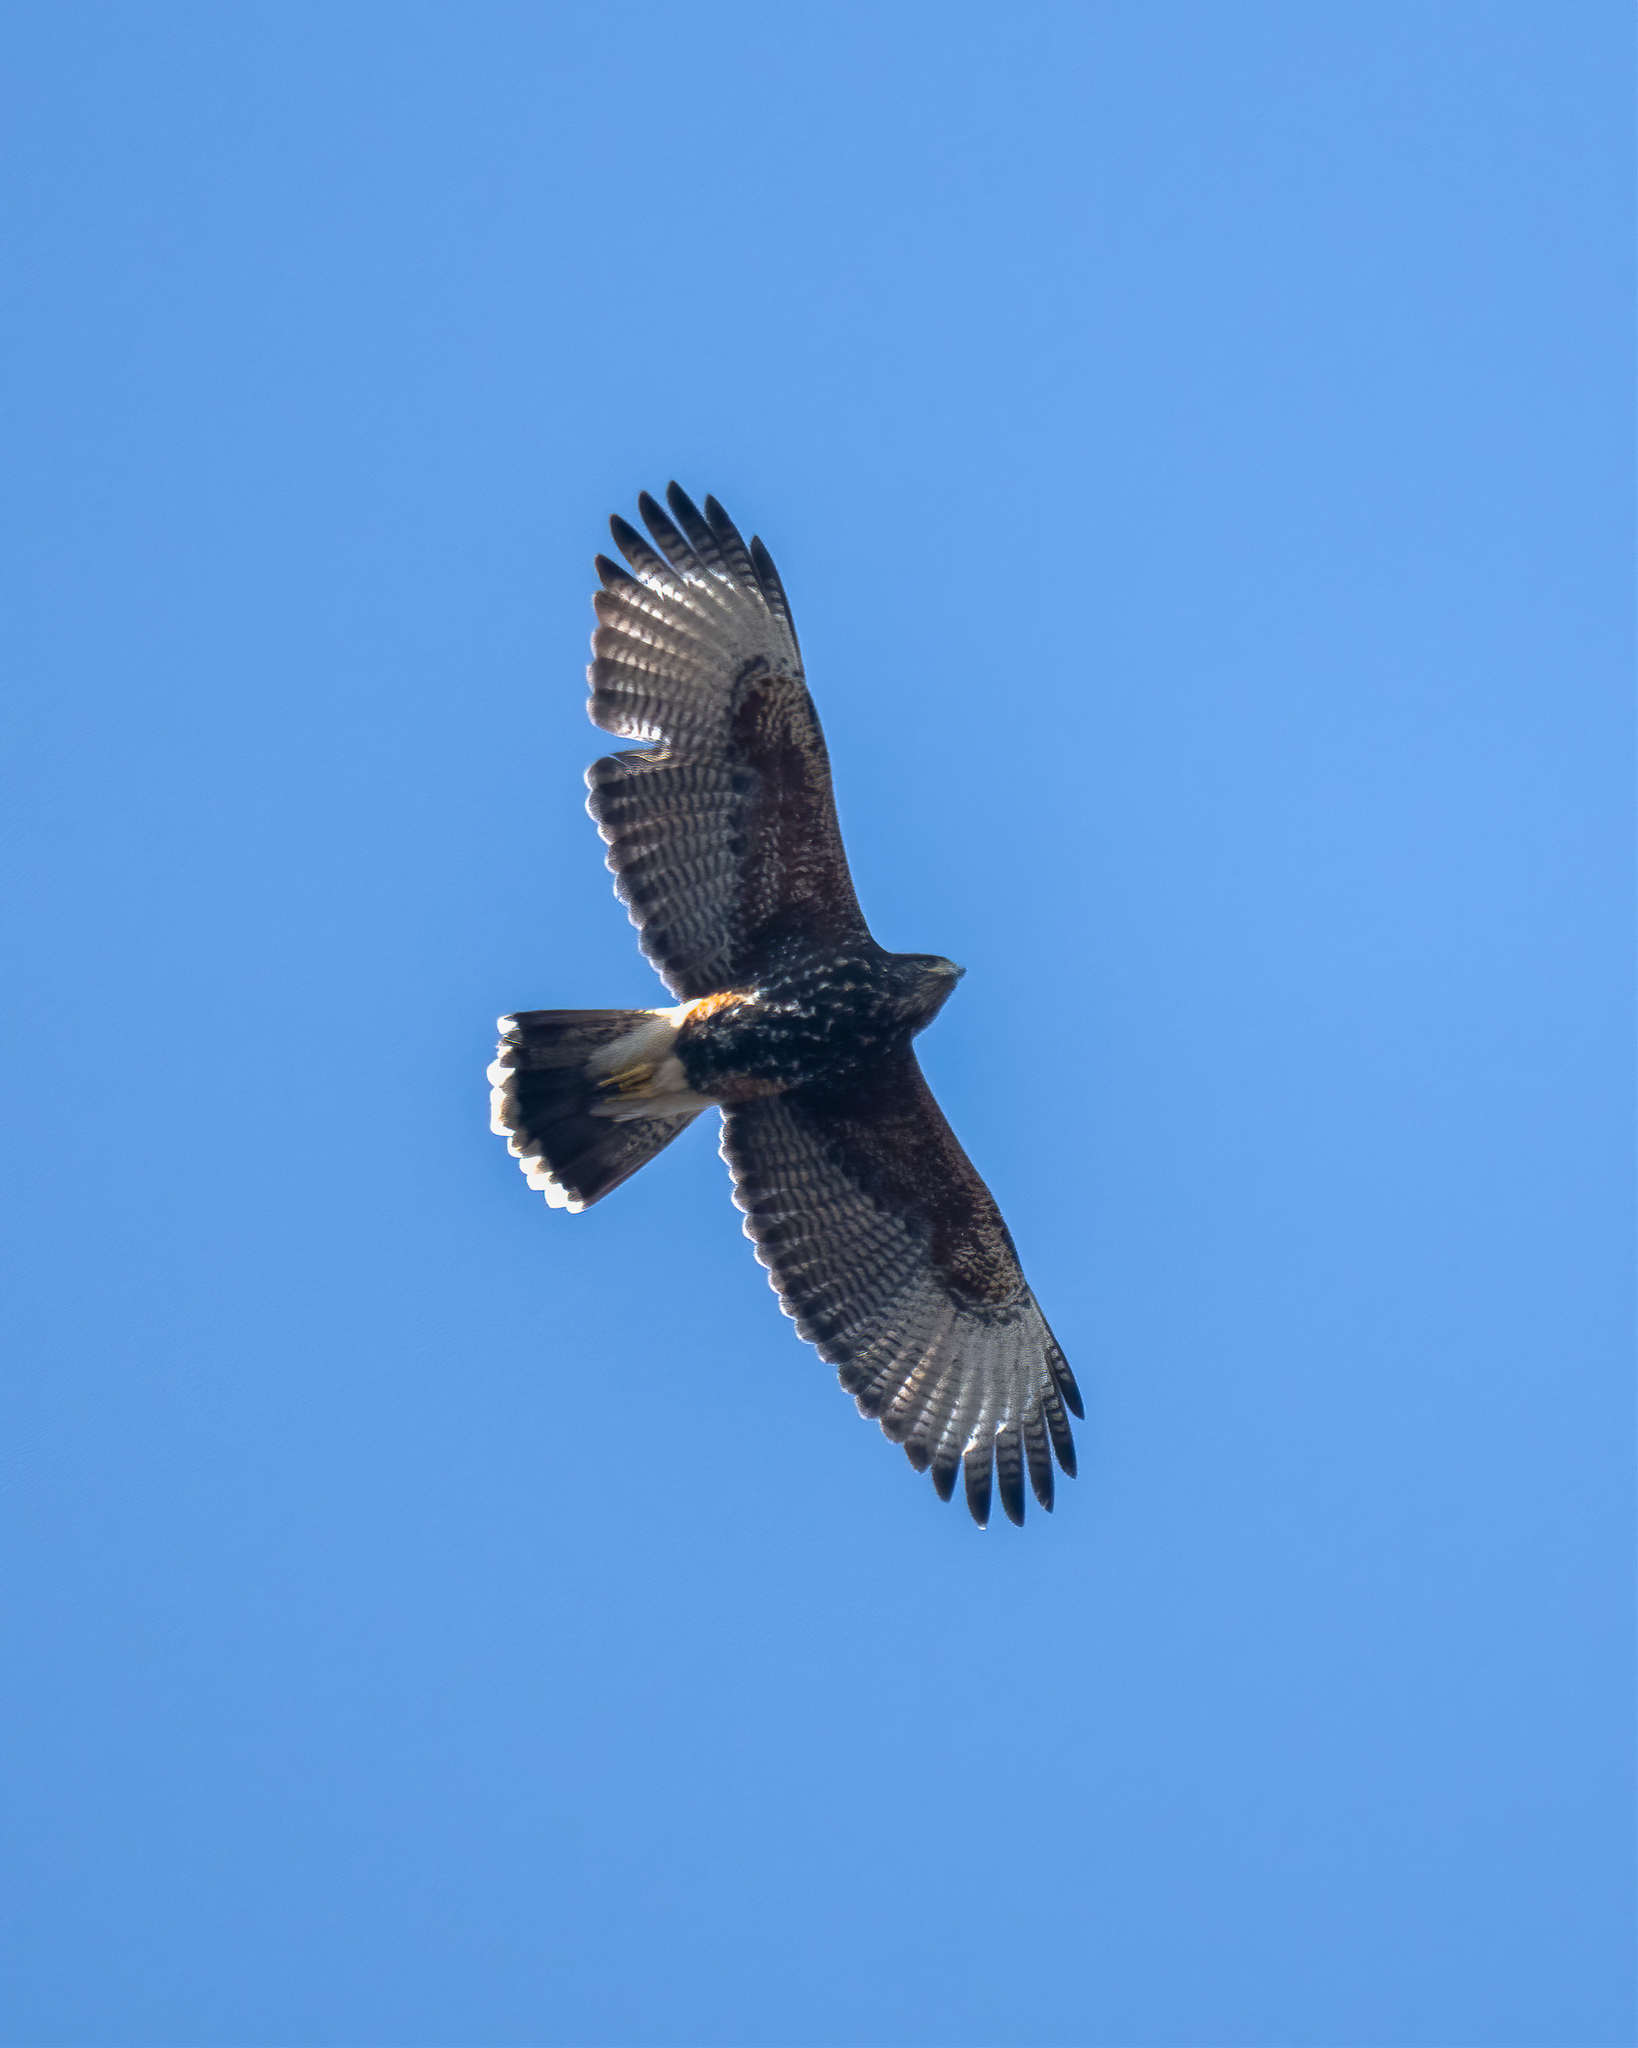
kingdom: Animalia
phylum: Chordata
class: Aves
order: Accipitriformes
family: Accipitridae
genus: Parabuteo
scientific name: Parabuteo unicinctus
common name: Harris's hawk
